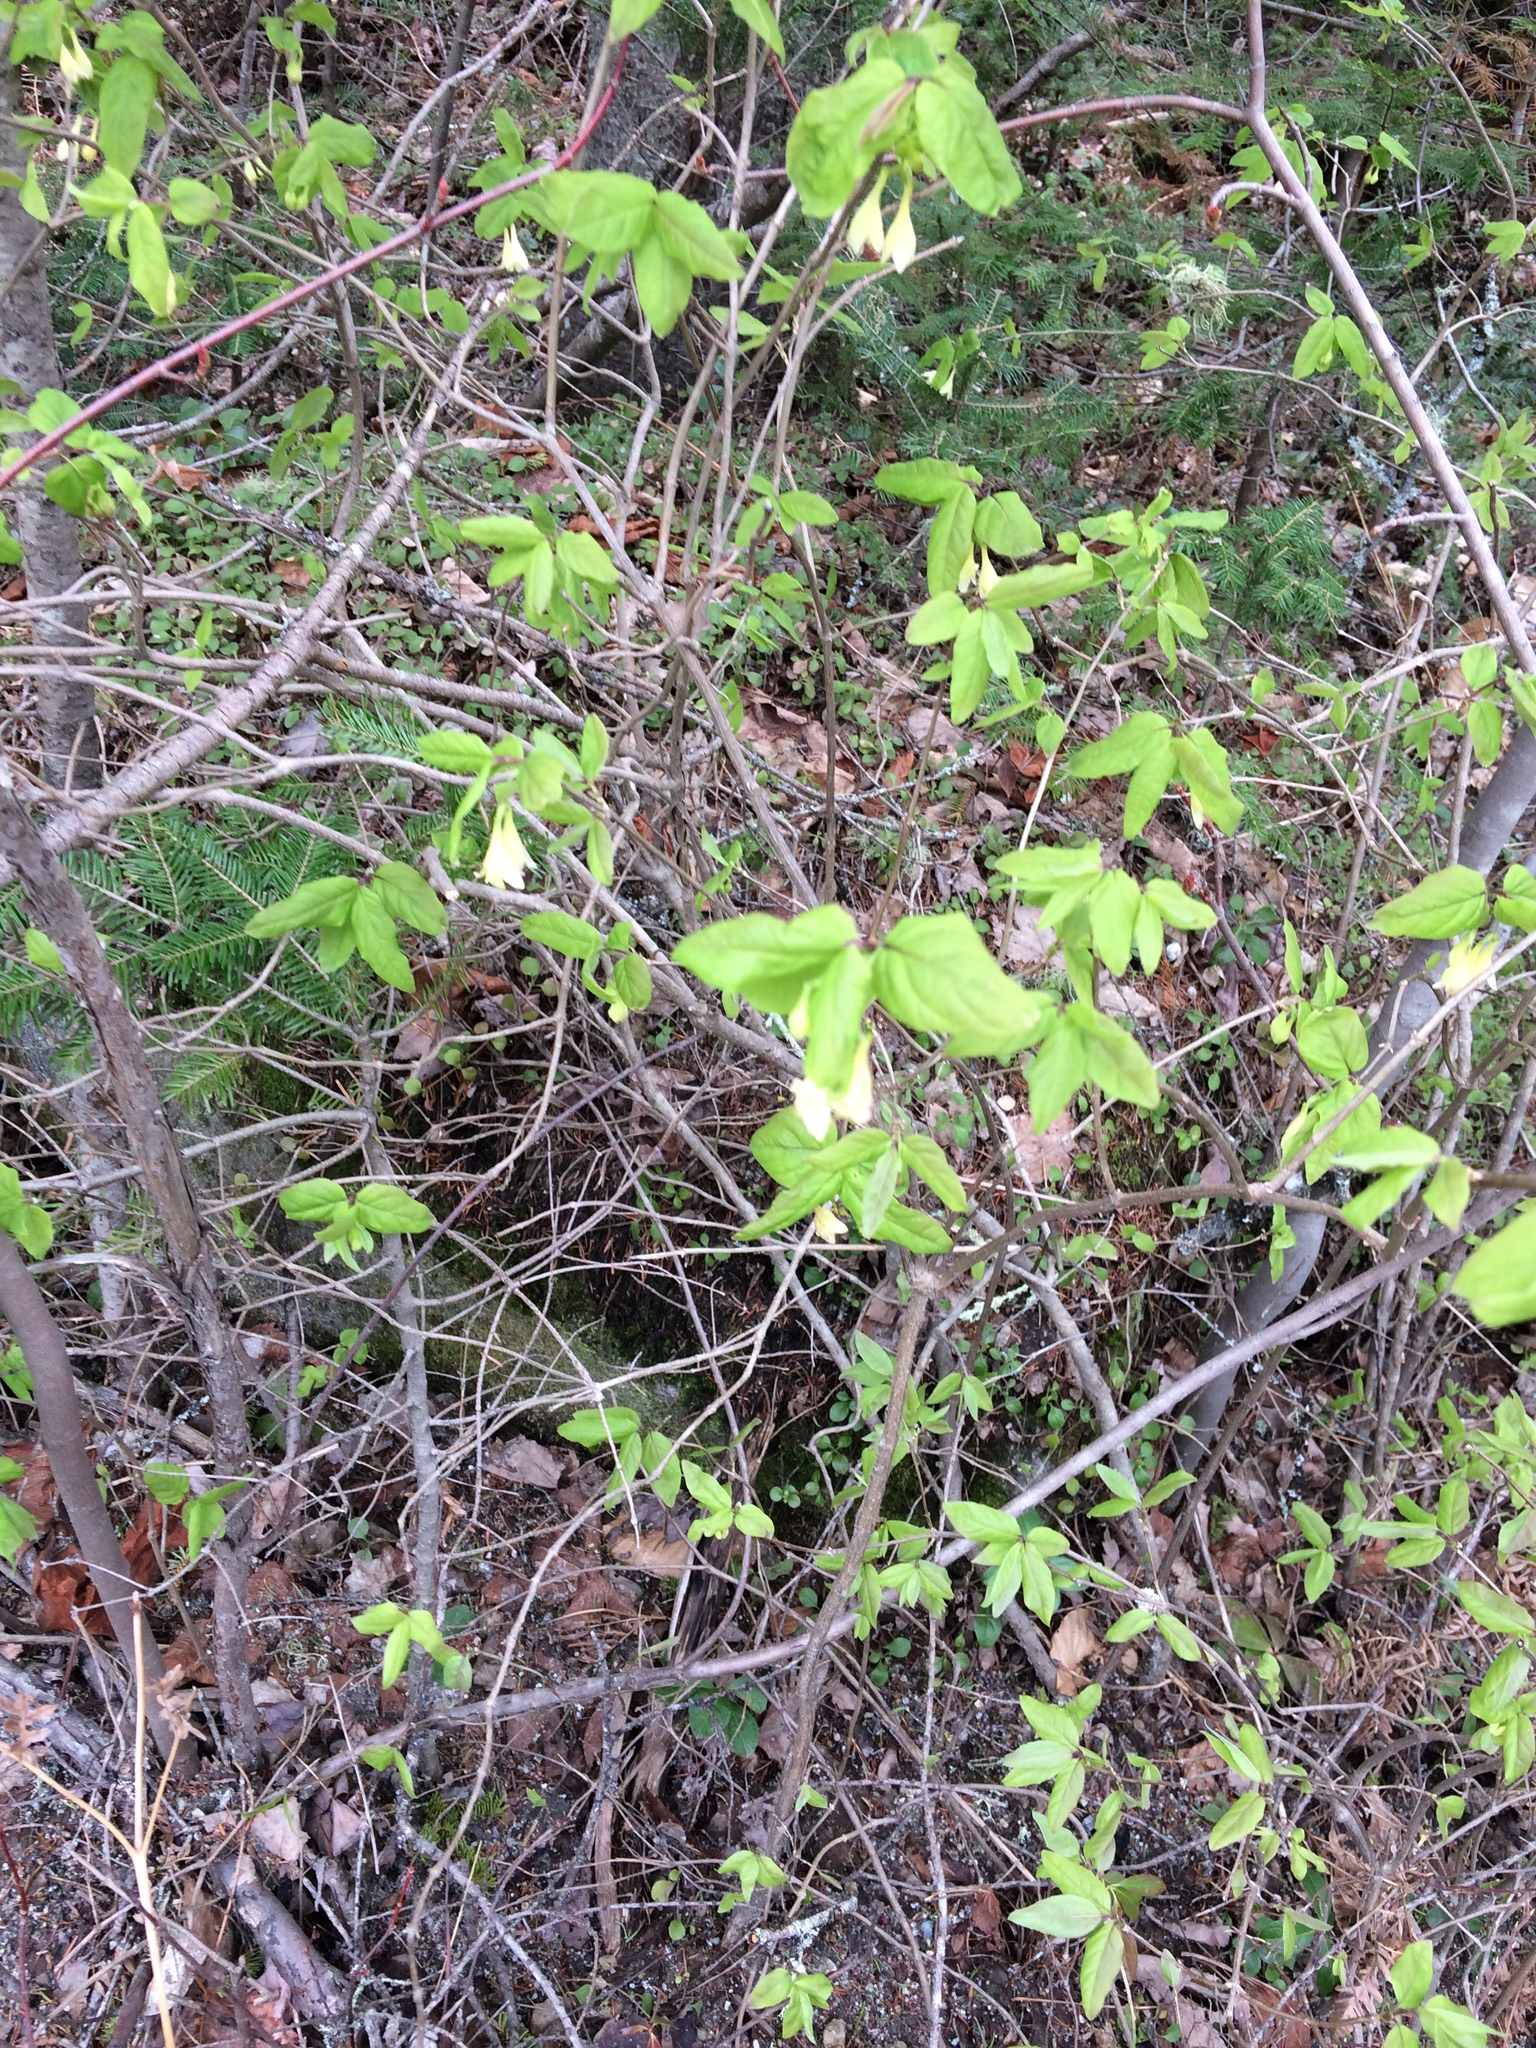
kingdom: Plantae
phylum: Tracheophyta
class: Magnoliopsida
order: Dipsacales
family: Caprifoliaceae
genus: Lonicera
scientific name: Lonicera canadensis
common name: American fly-honeysuckle
